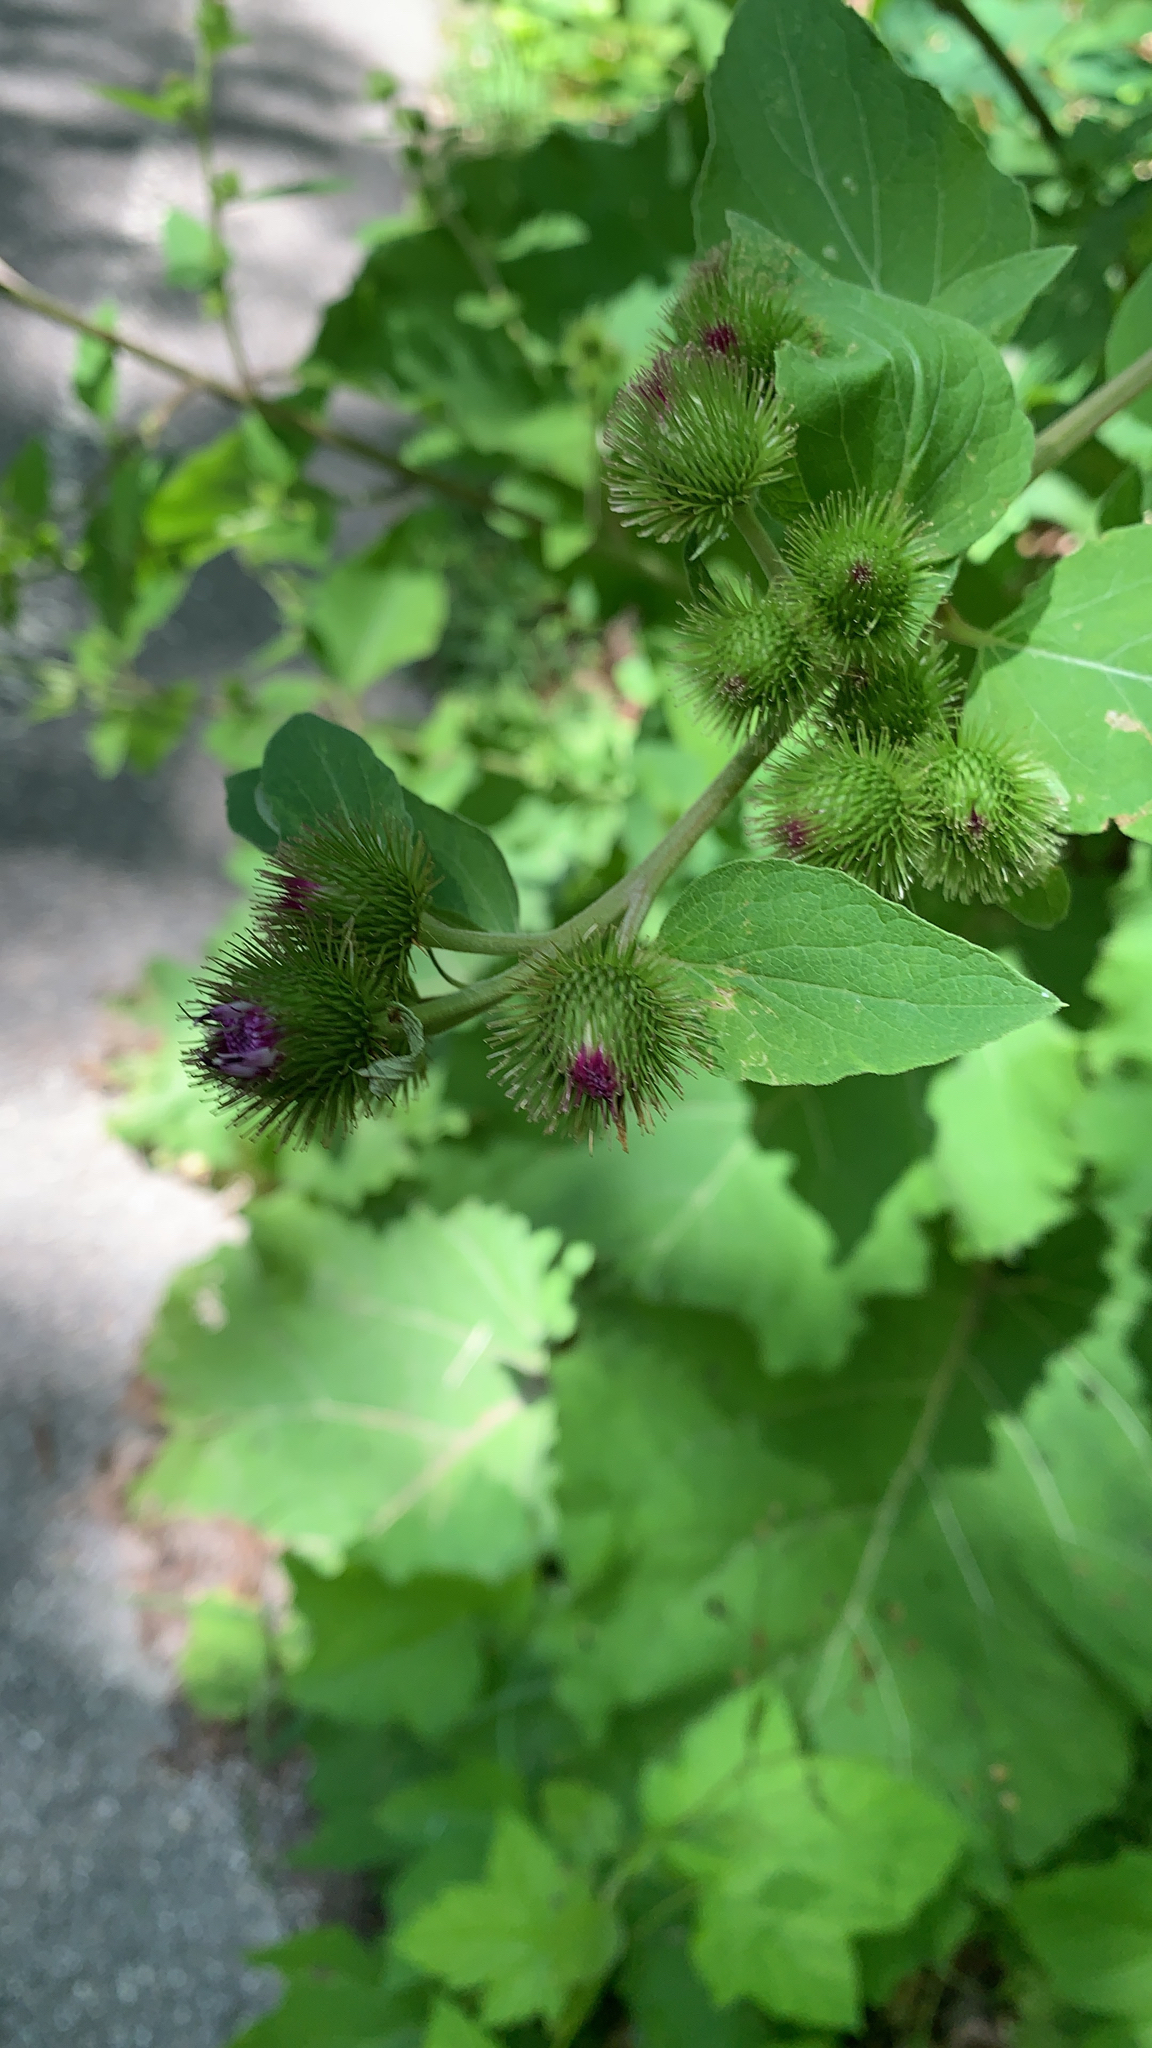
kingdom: Plantae
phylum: Tracheophyta
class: Magnoliopsida
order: Asterales
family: Asteraceae
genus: Arctium
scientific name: Arctium minus
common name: Lesser burdock
